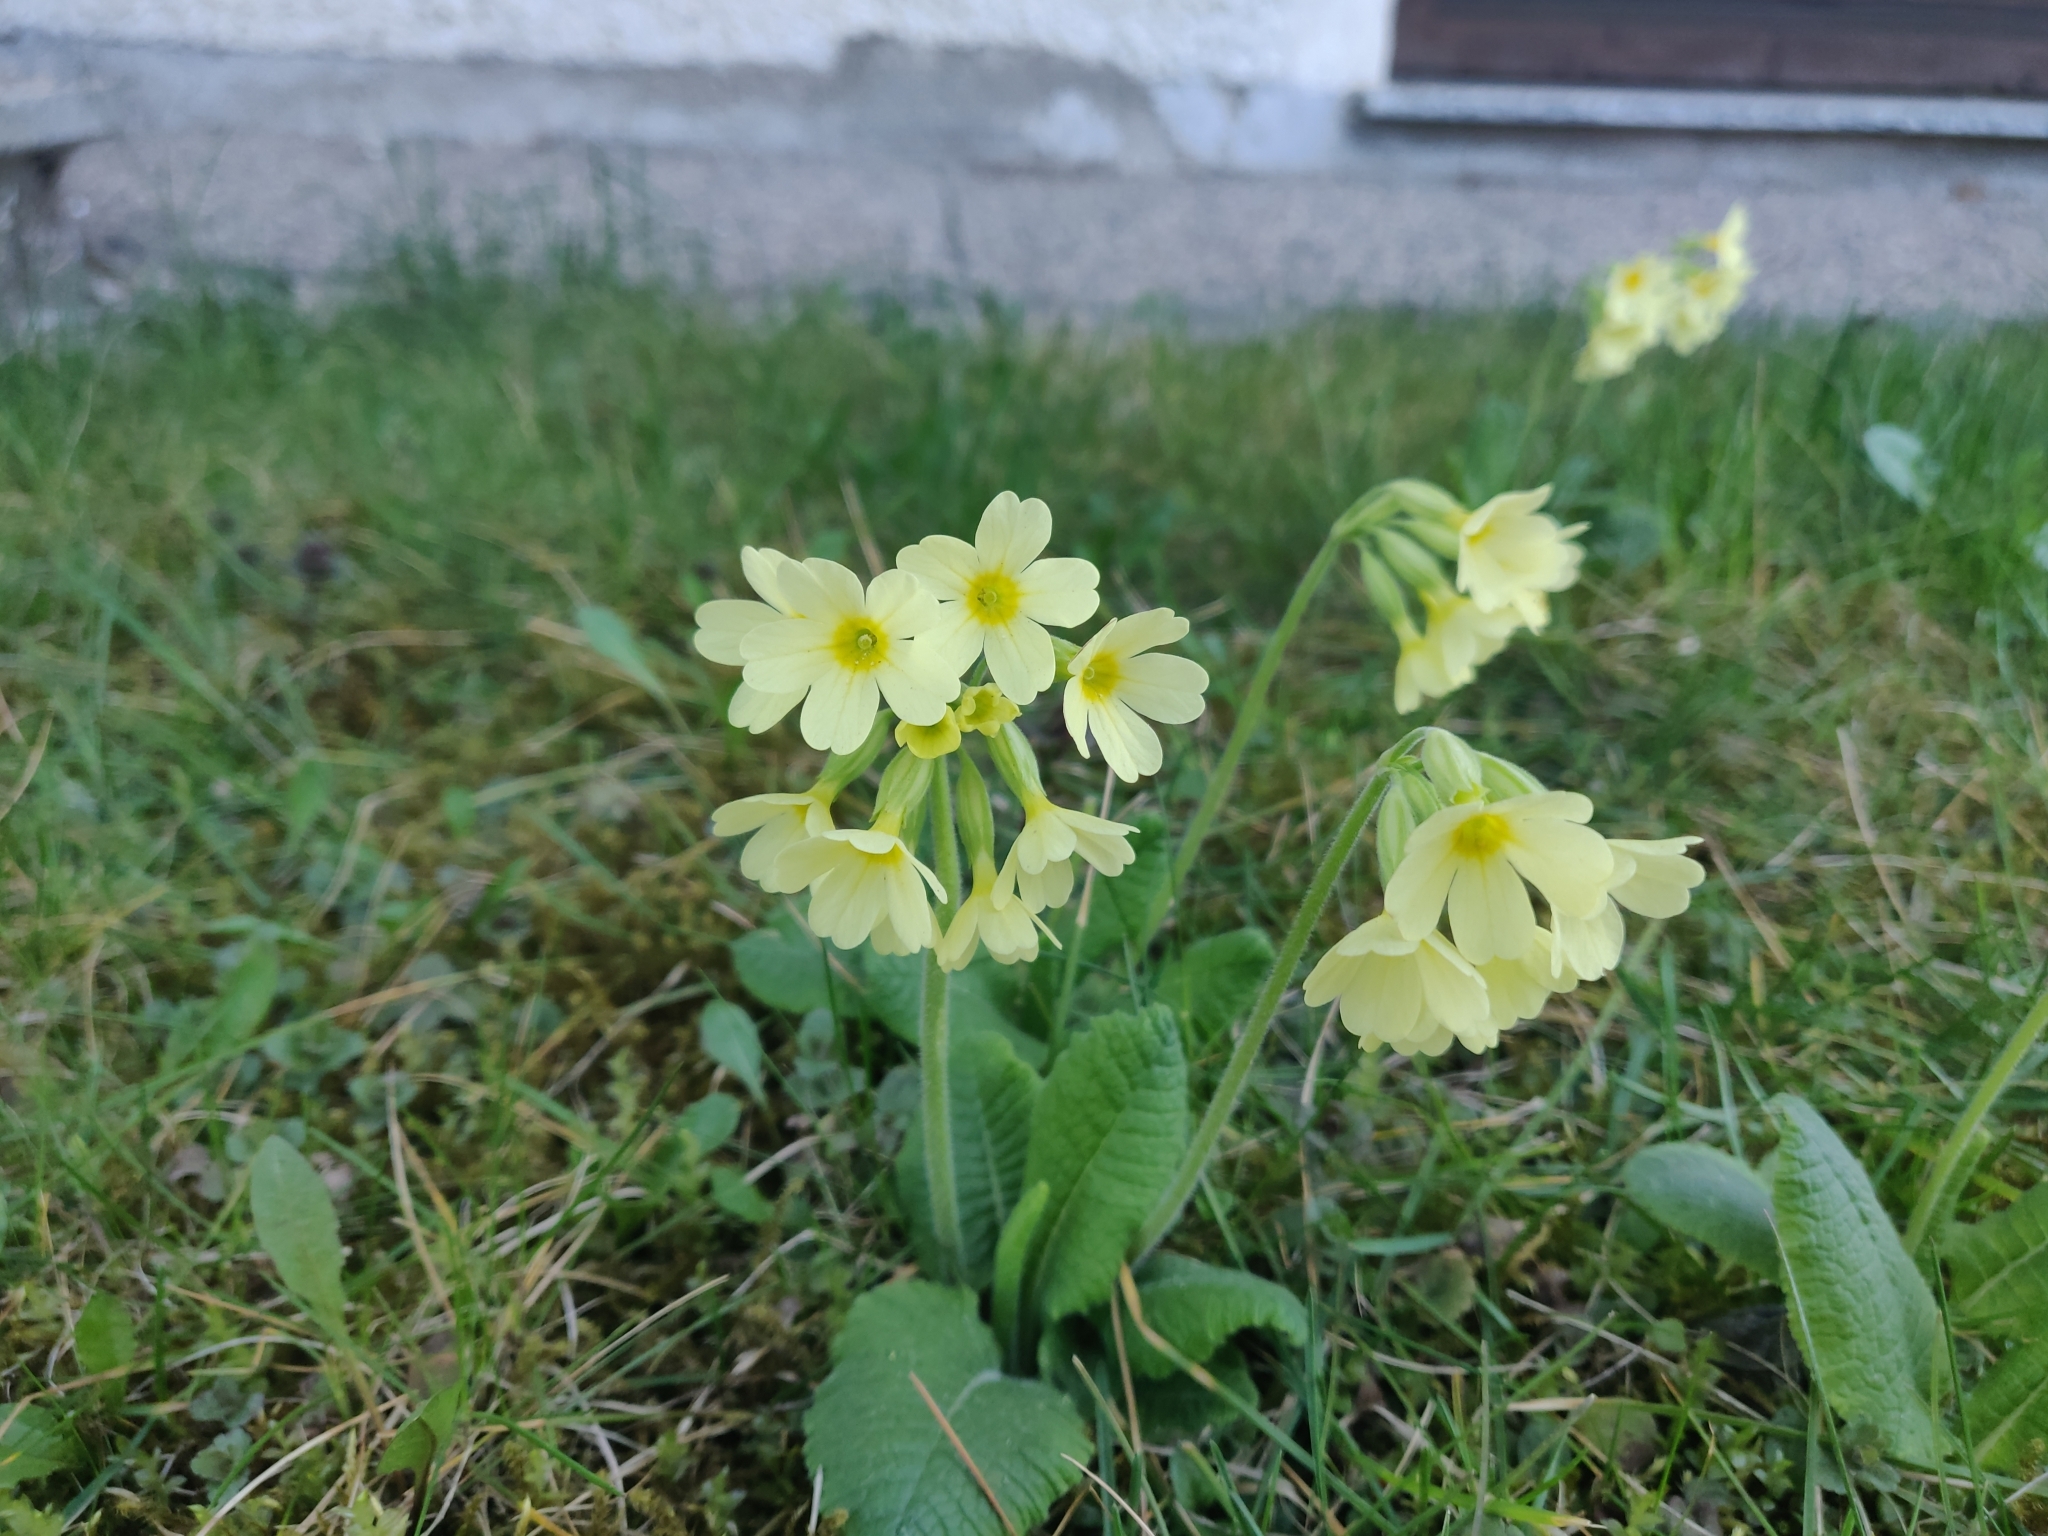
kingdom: Plantae
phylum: Tracheophyta
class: Magnoliopsida
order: Ericales
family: Primulaceae
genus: Primula
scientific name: Primula elatior
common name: Oxlip
